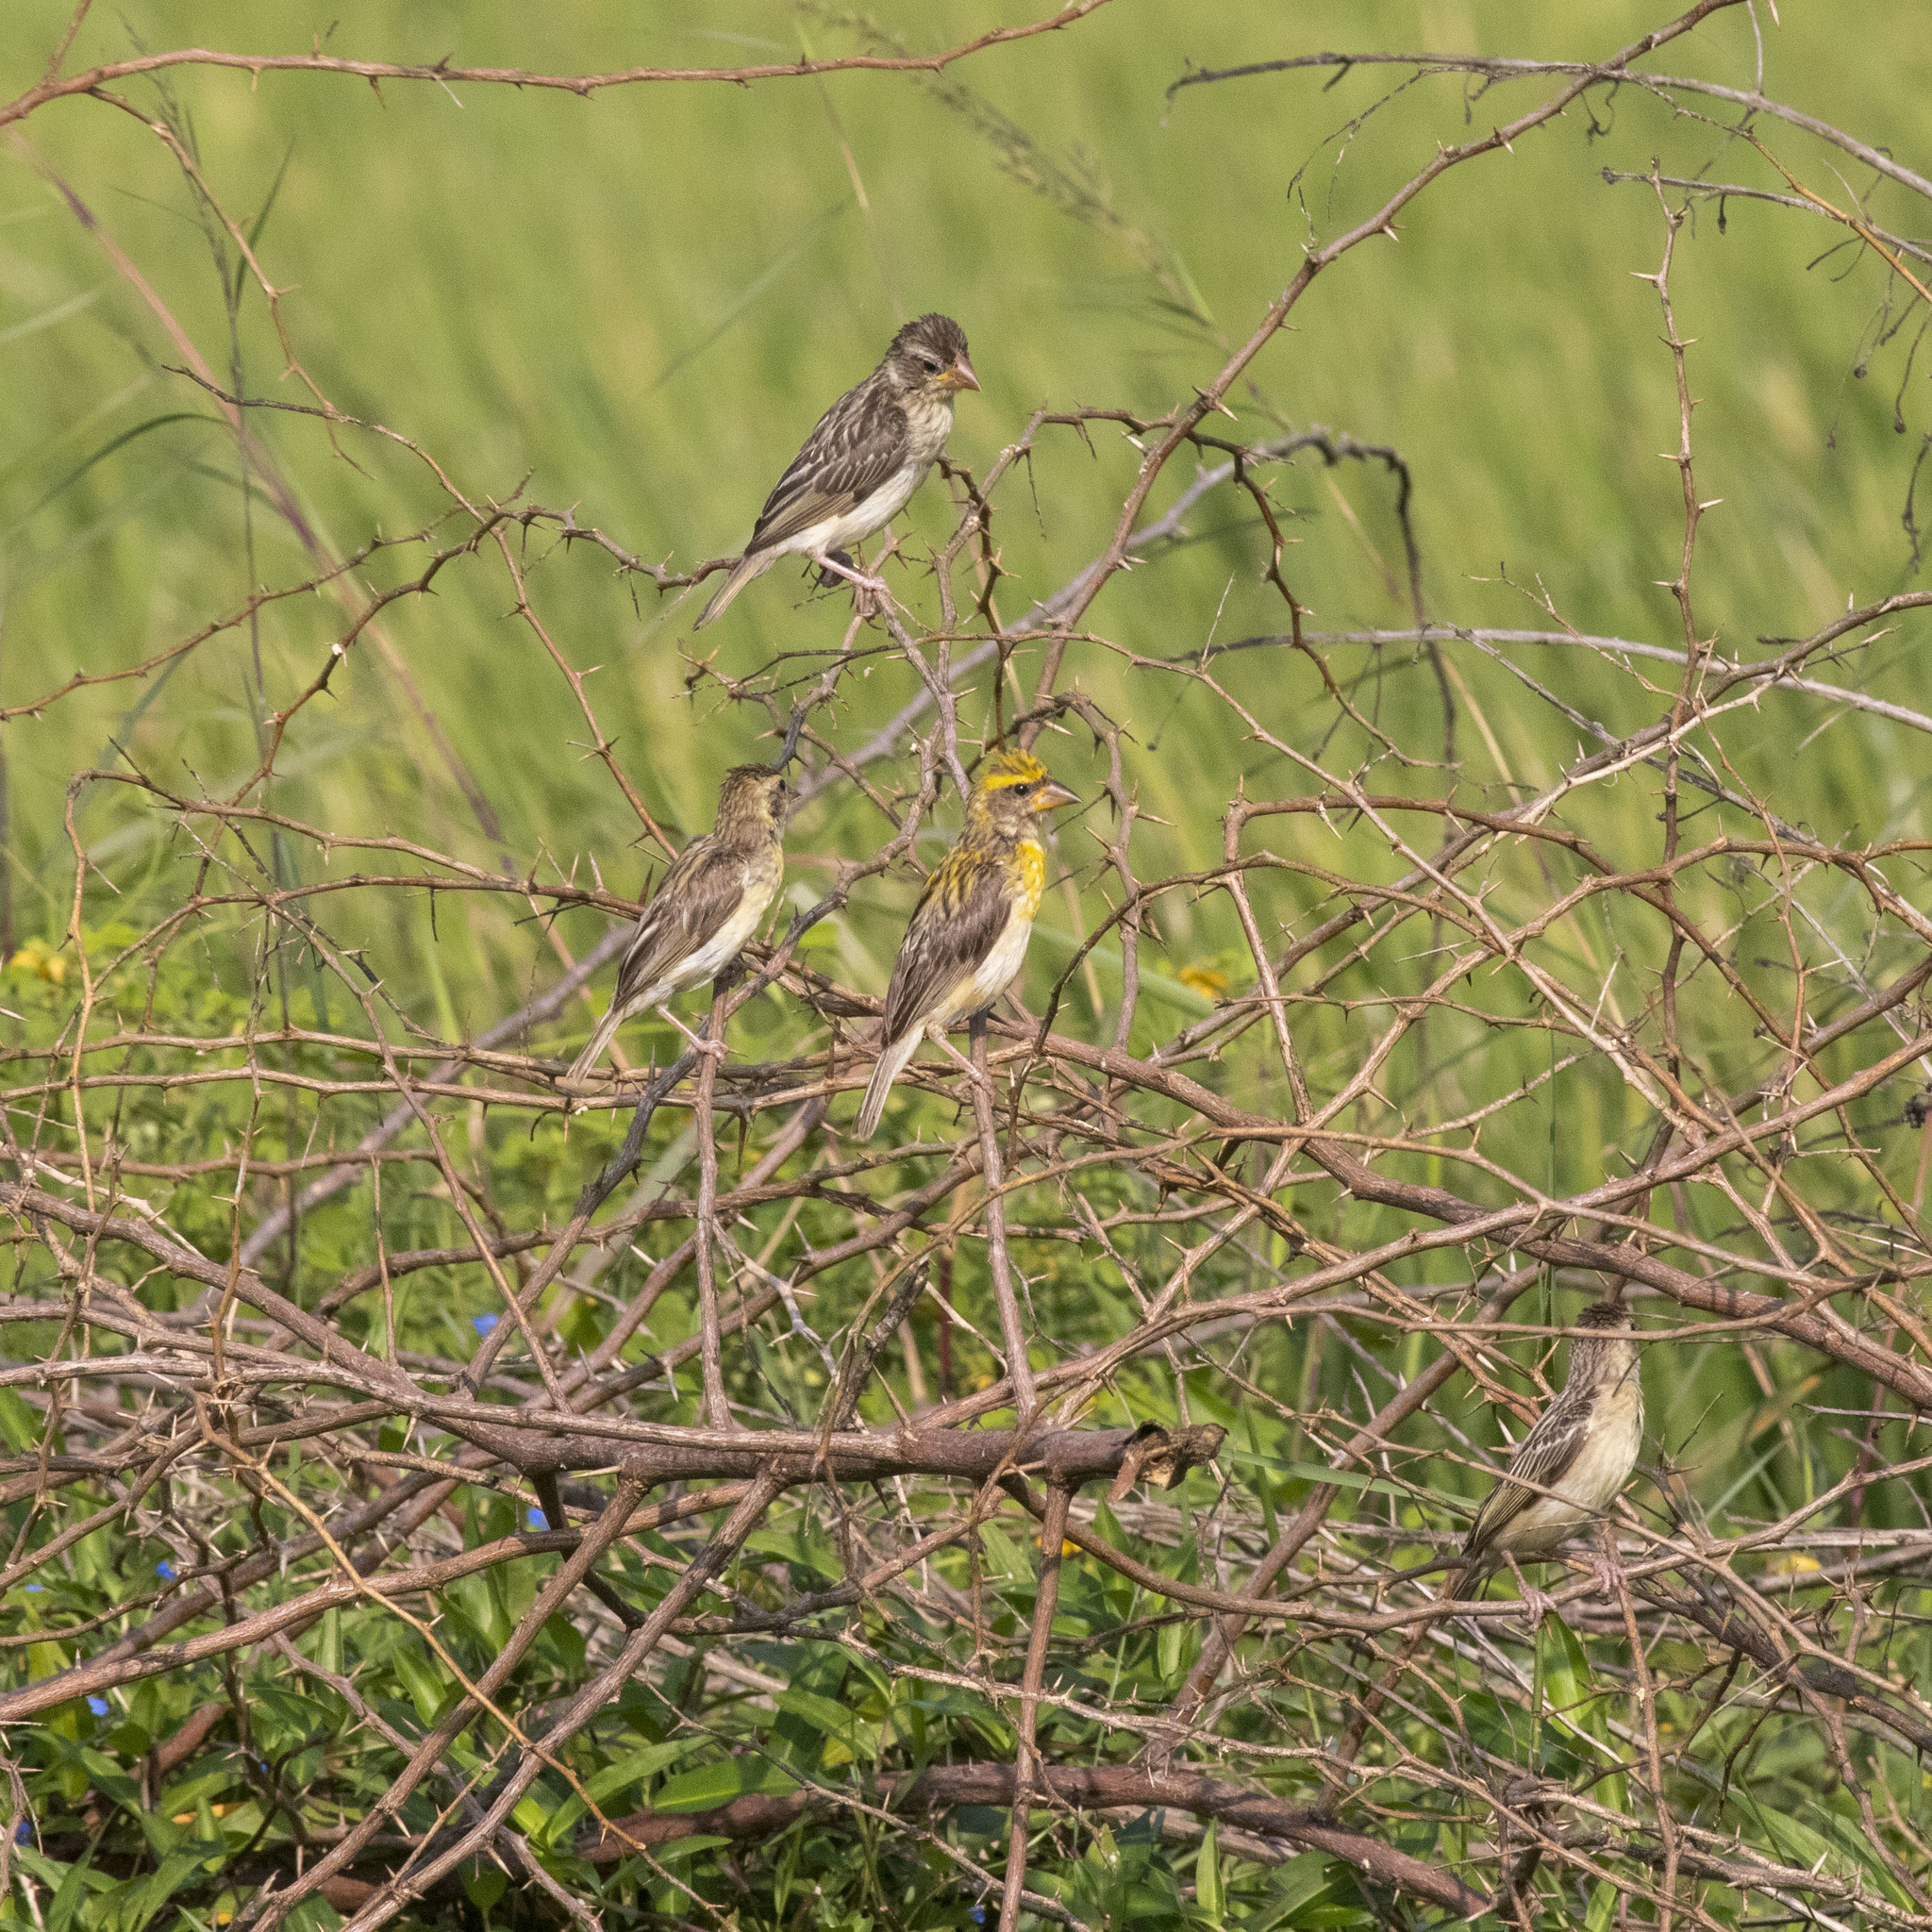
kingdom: Animalia
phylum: Chordata
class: Aves
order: Passeriformes
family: Ploceidae
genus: Ploceus
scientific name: Ploceus philippinus
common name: Baya weaver
